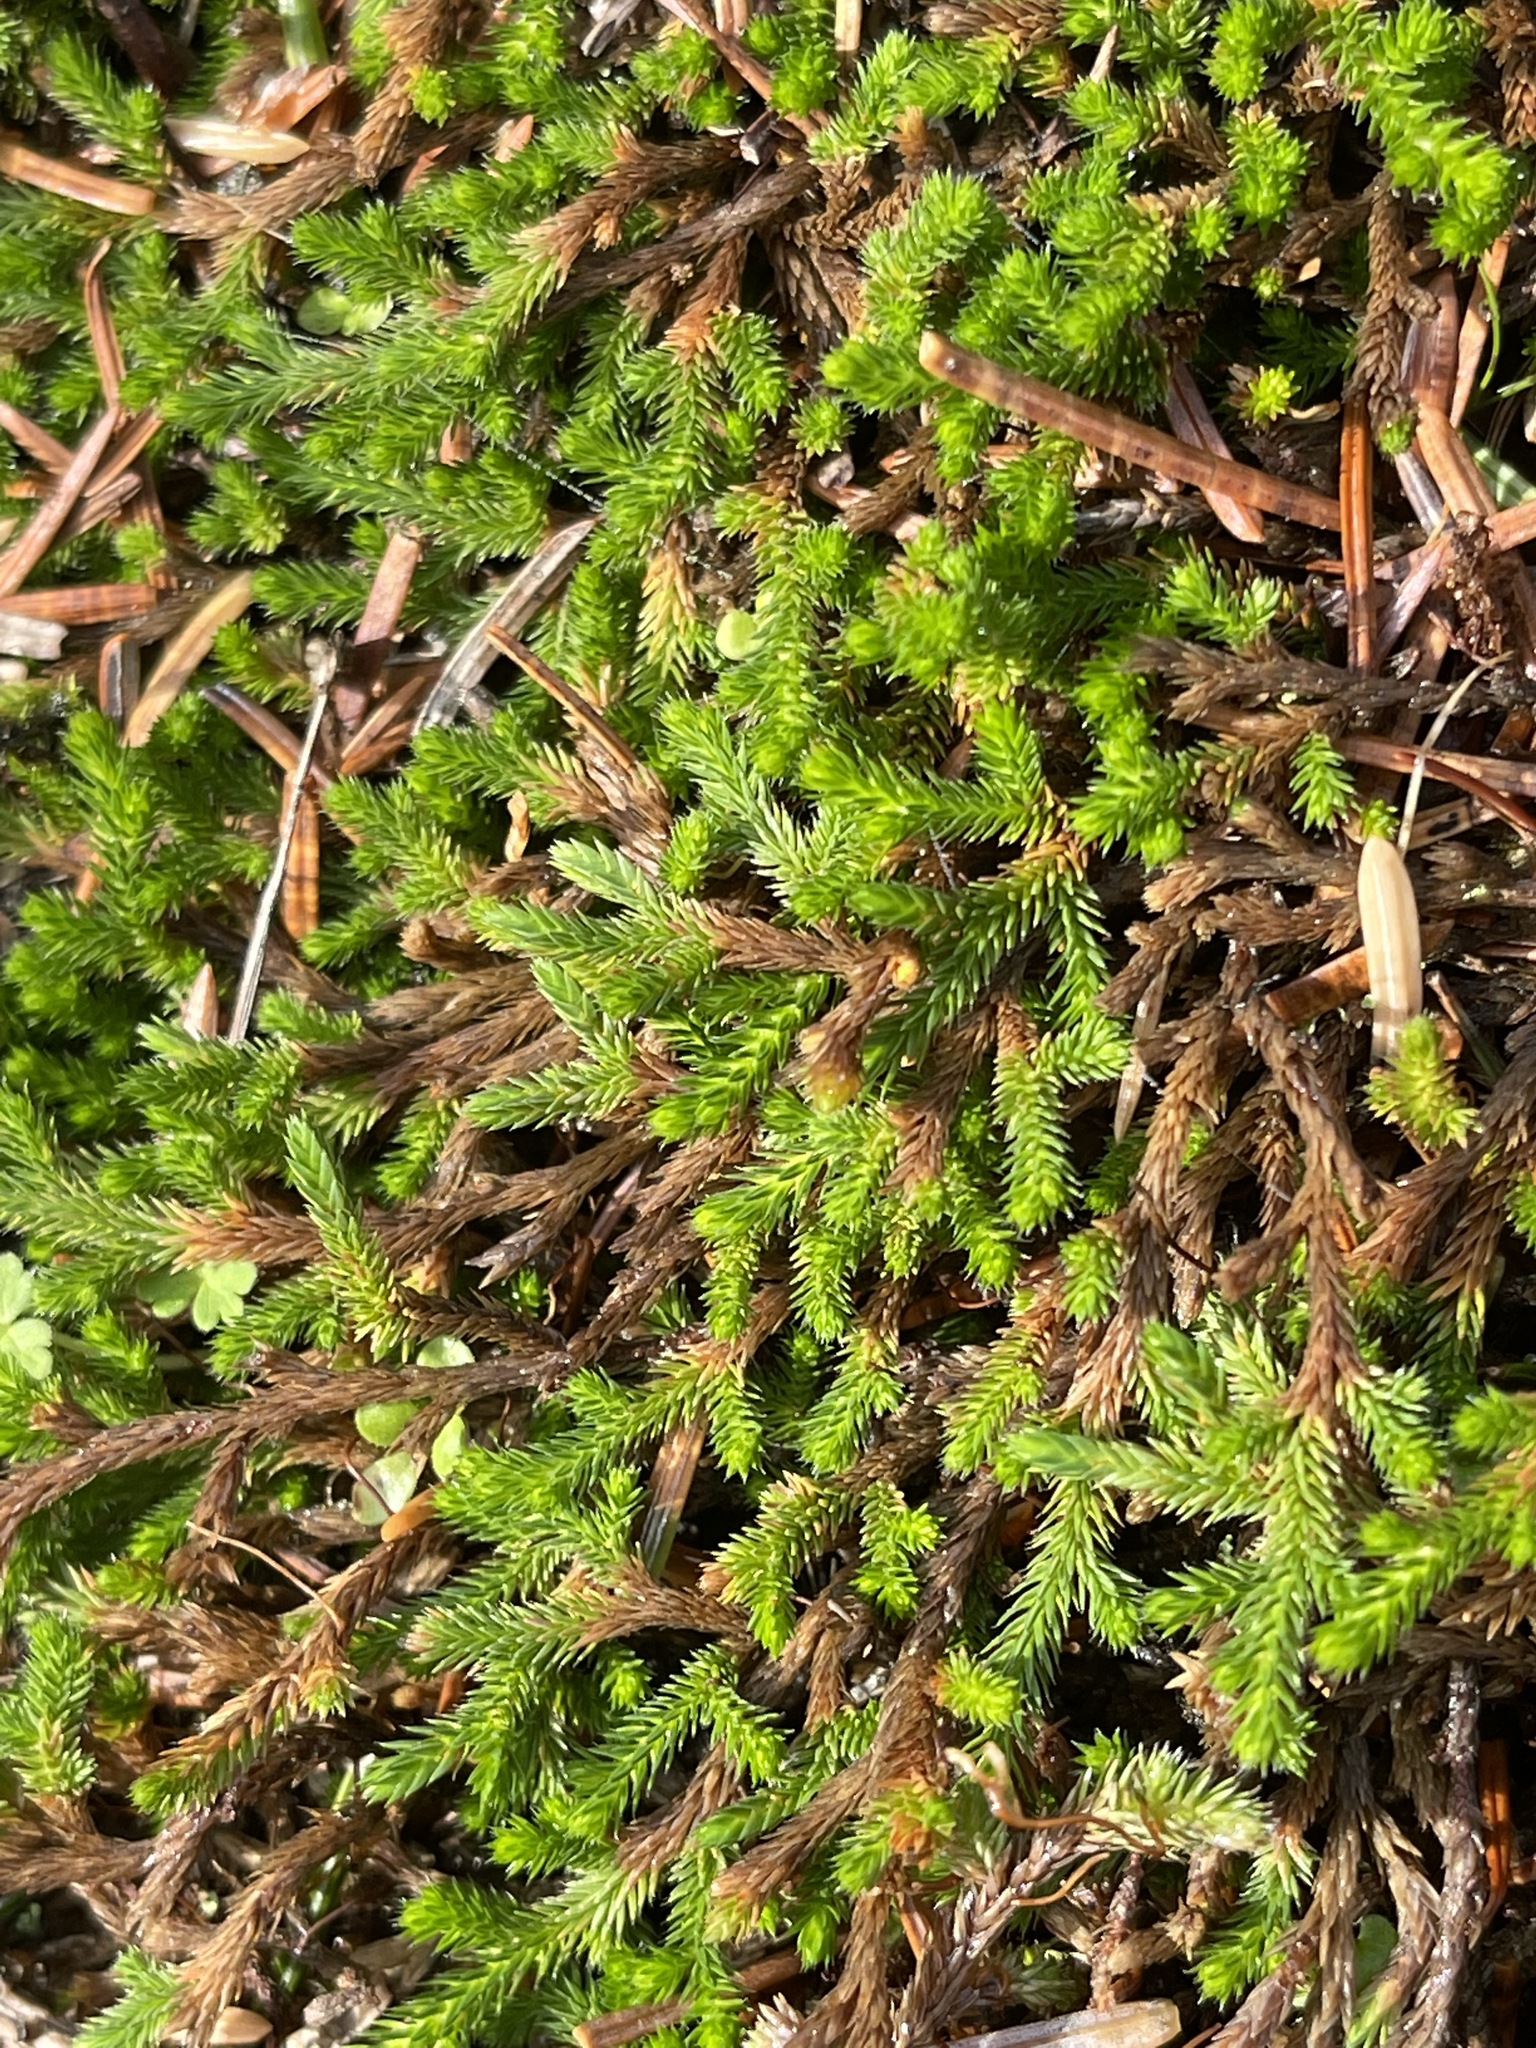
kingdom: Plantae
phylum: Tracheophyta
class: Lycopodiopsida
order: Selaginellales
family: Selaginellaceae
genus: Selaginella
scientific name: Selaginella wallacei
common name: Wallace's selaginella
